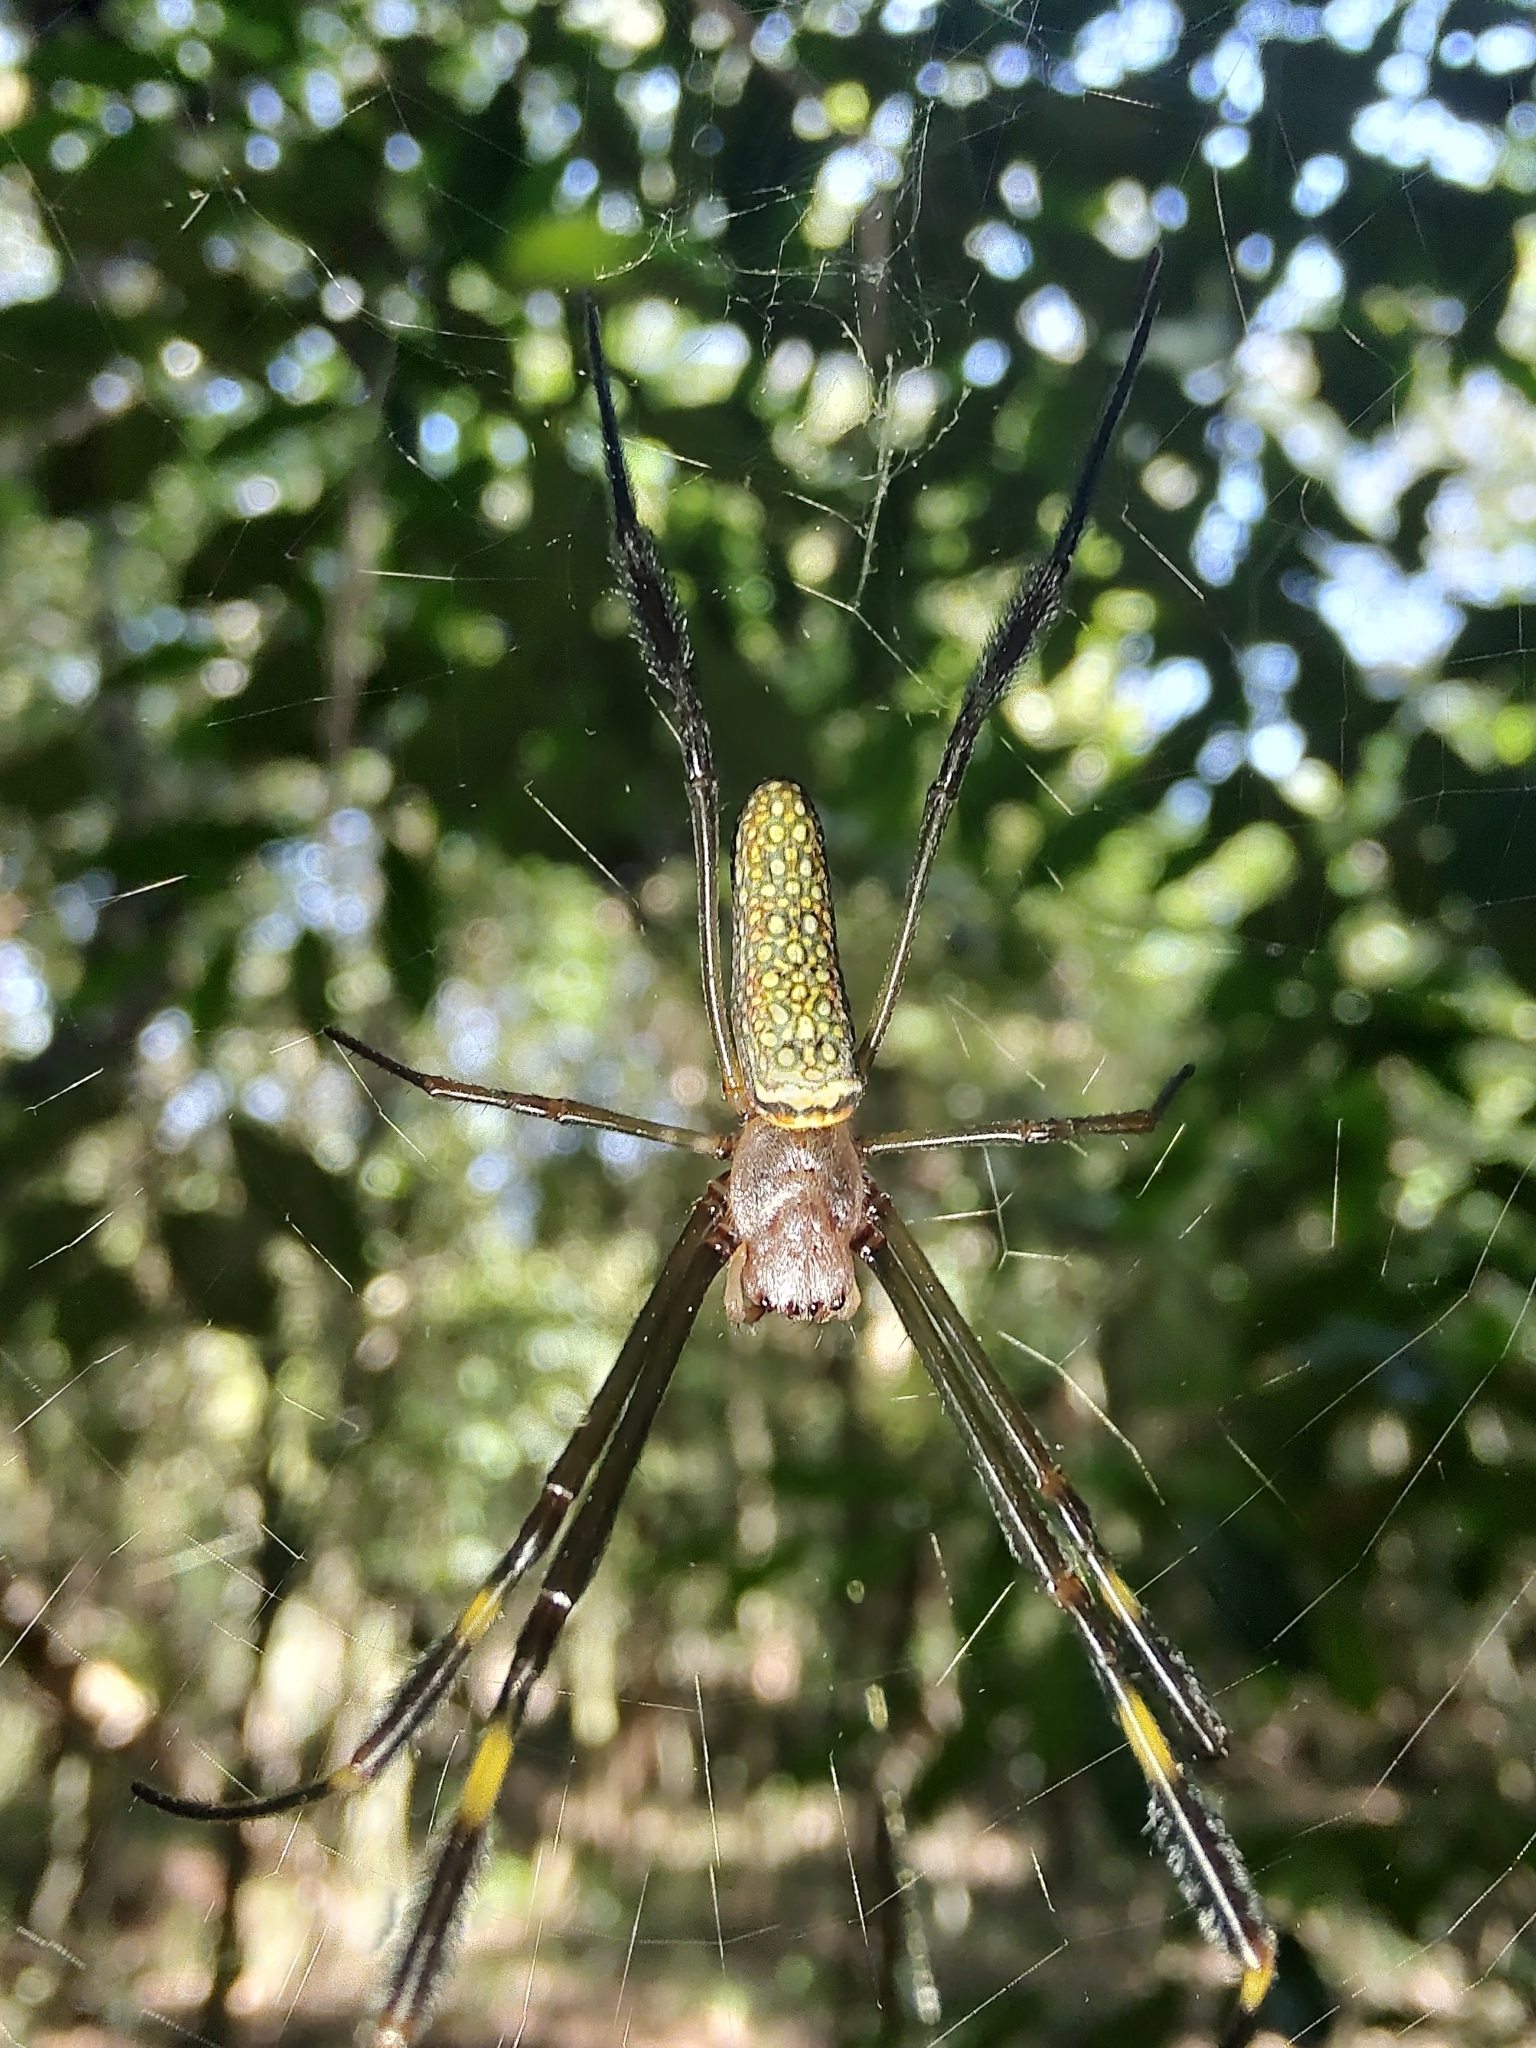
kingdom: Animalia
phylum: Arthropoda
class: Arachnida
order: Araneae
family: Araneidae
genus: Trichonephila
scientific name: Trichonephila clavipes
